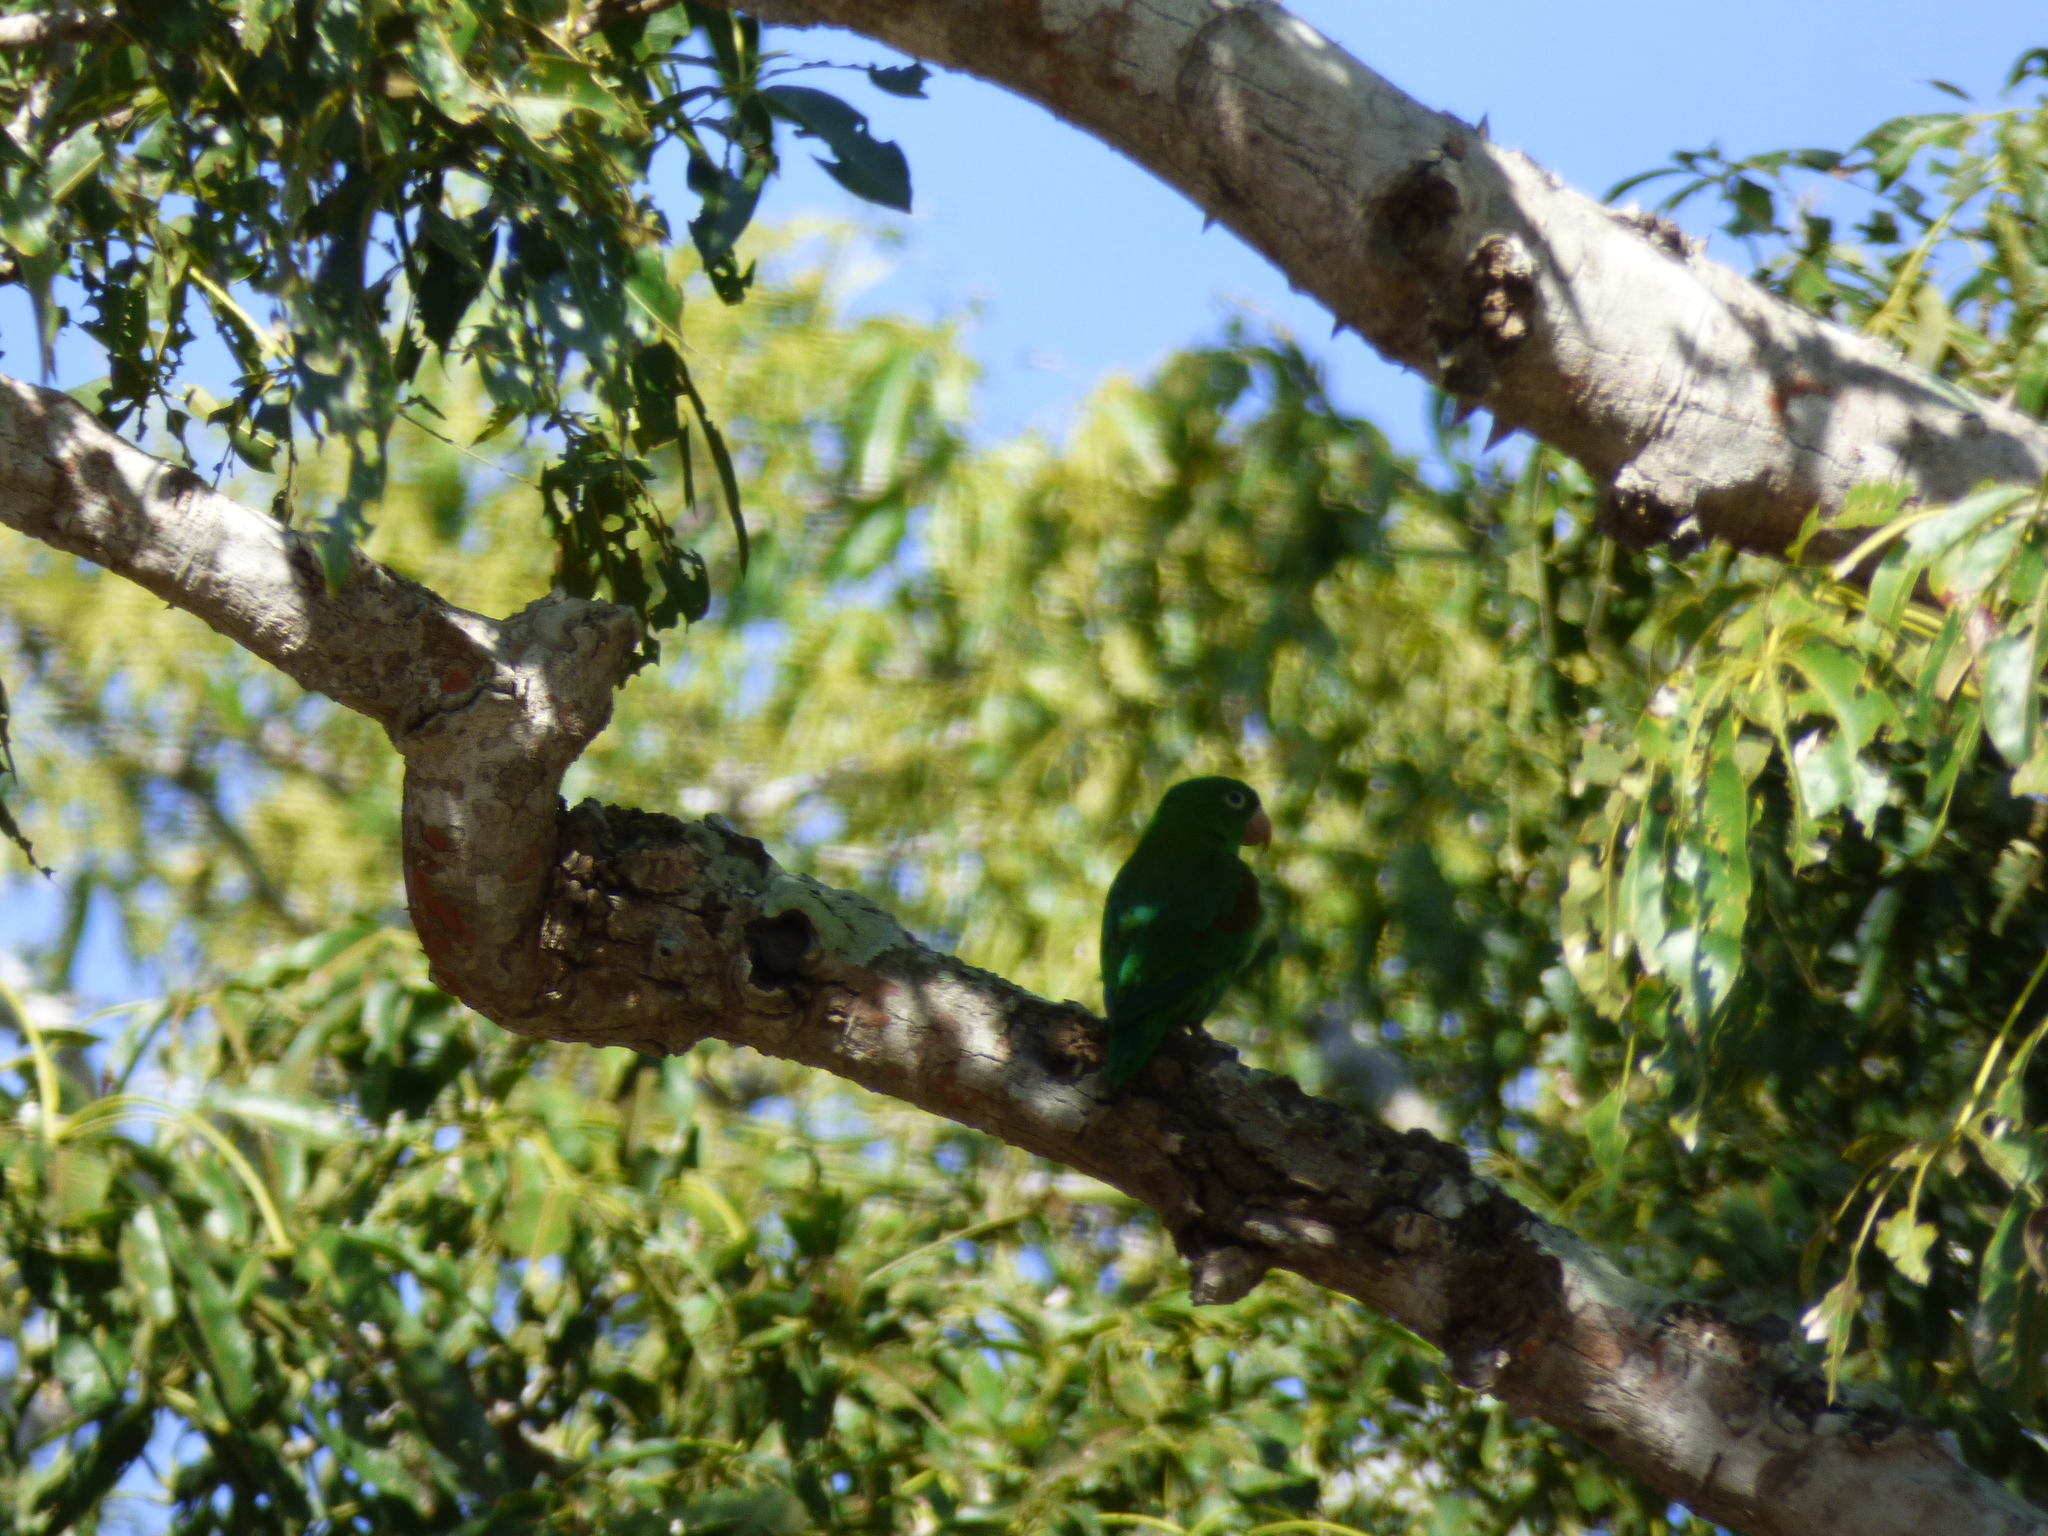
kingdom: Animalia
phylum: Chordata
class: Aves
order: Psittaciformes
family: Psittacidae
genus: Brotogeris
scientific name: Brotogeris jugularis
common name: Orange-chinned parakeet
